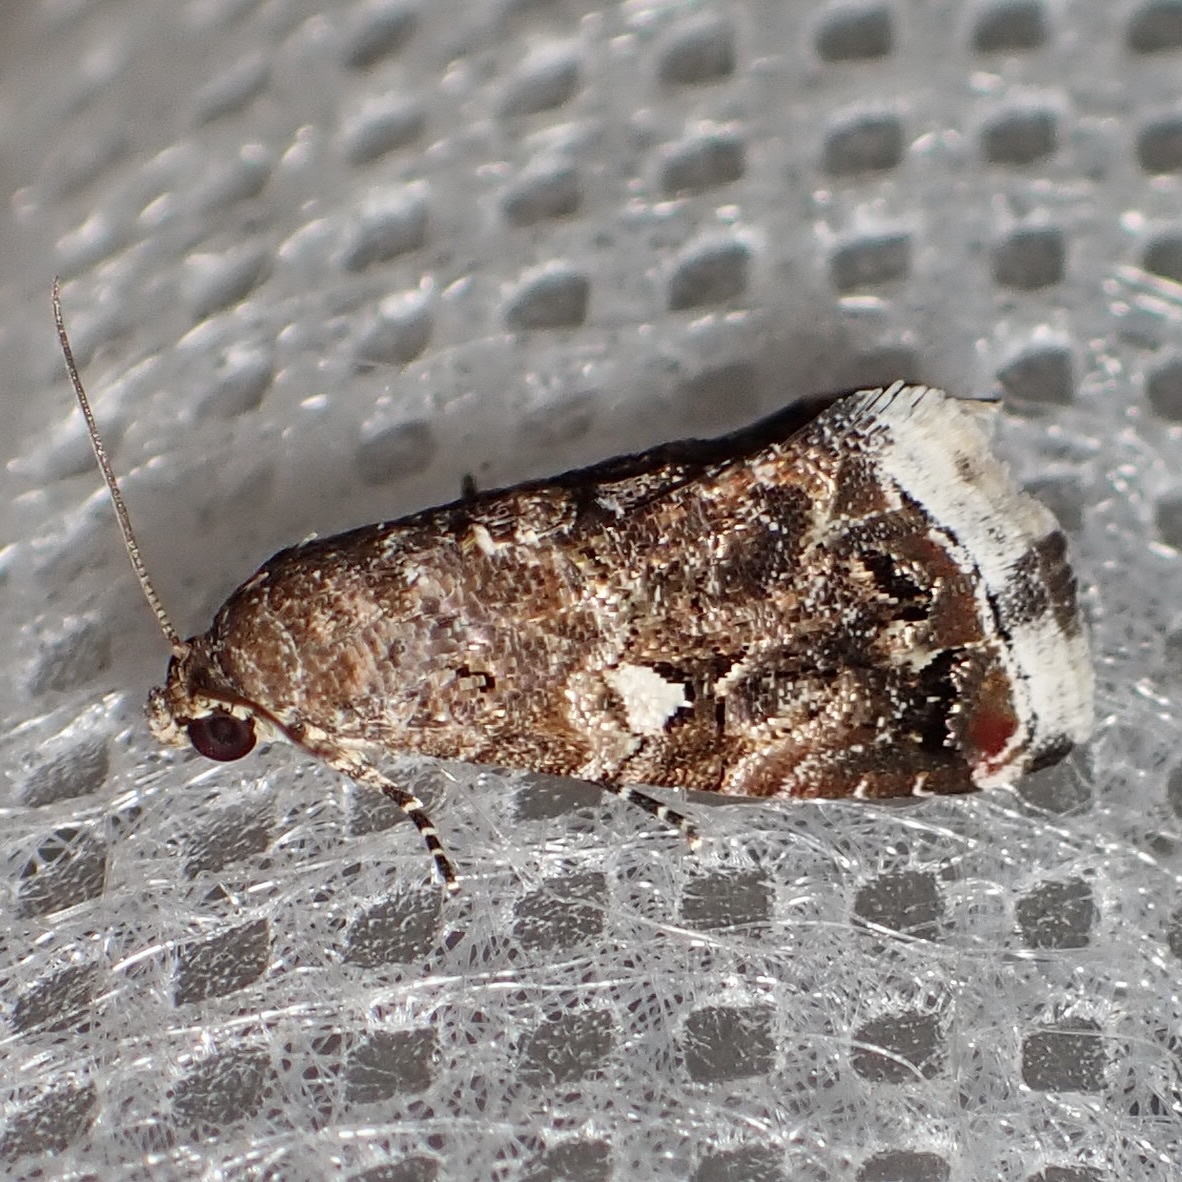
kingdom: Animalia
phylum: Arthropoda
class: Insecta
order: Lepidoptera
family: Noctuidae
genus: Tripudia
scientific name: Tripudia luxuriosa
